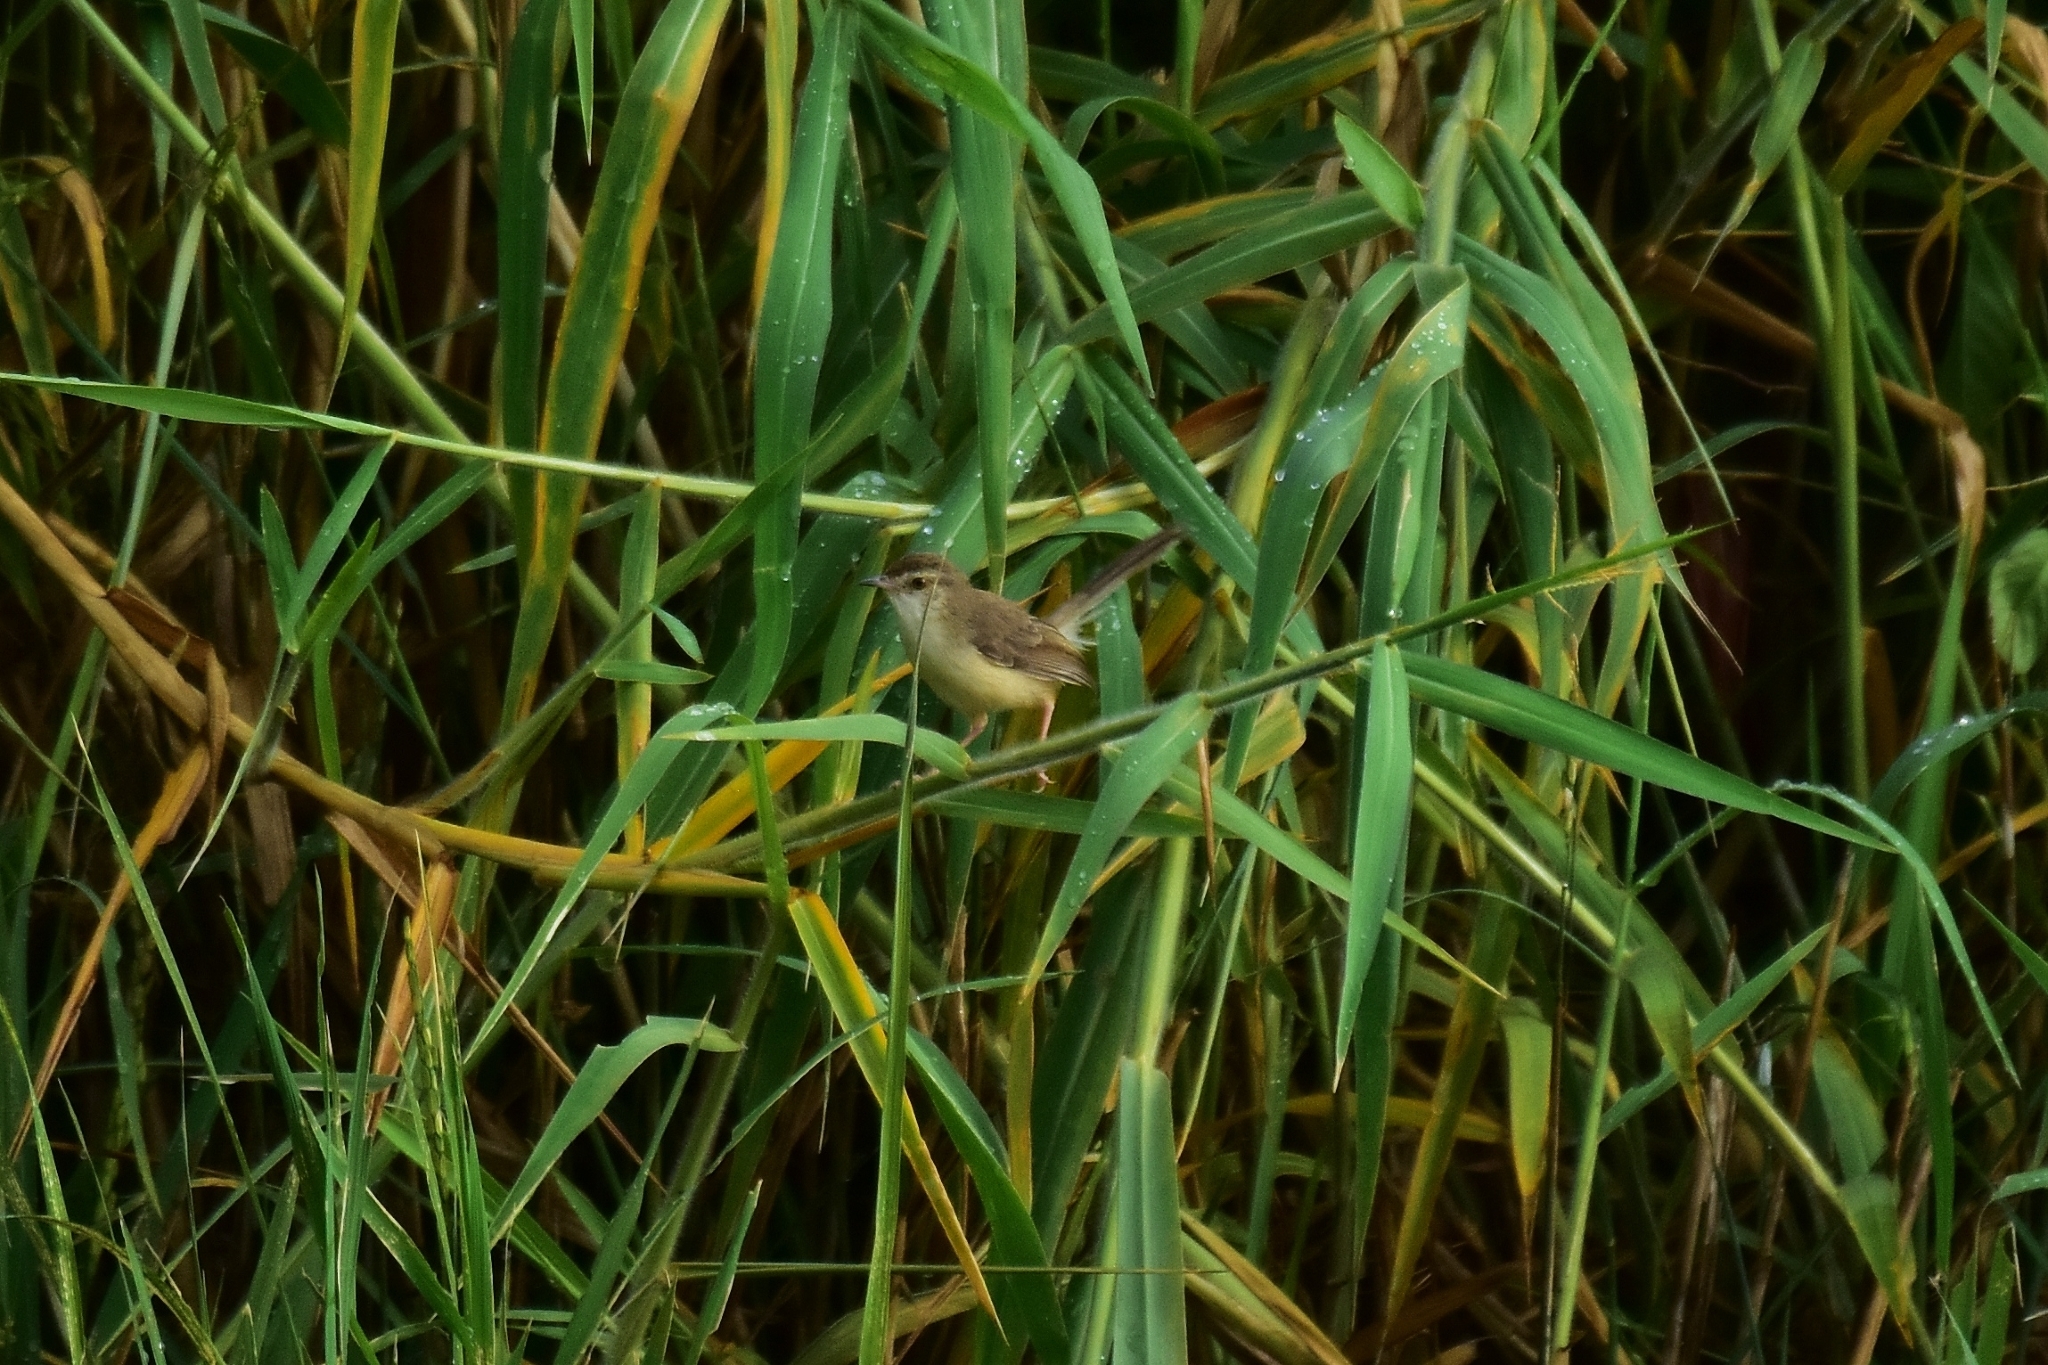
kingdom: Animalia
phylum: Chordata
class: Aves
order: Passeriformes
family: Cisticolidae
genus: Prinia
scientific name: Prinia inornata
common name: Plain prinia
